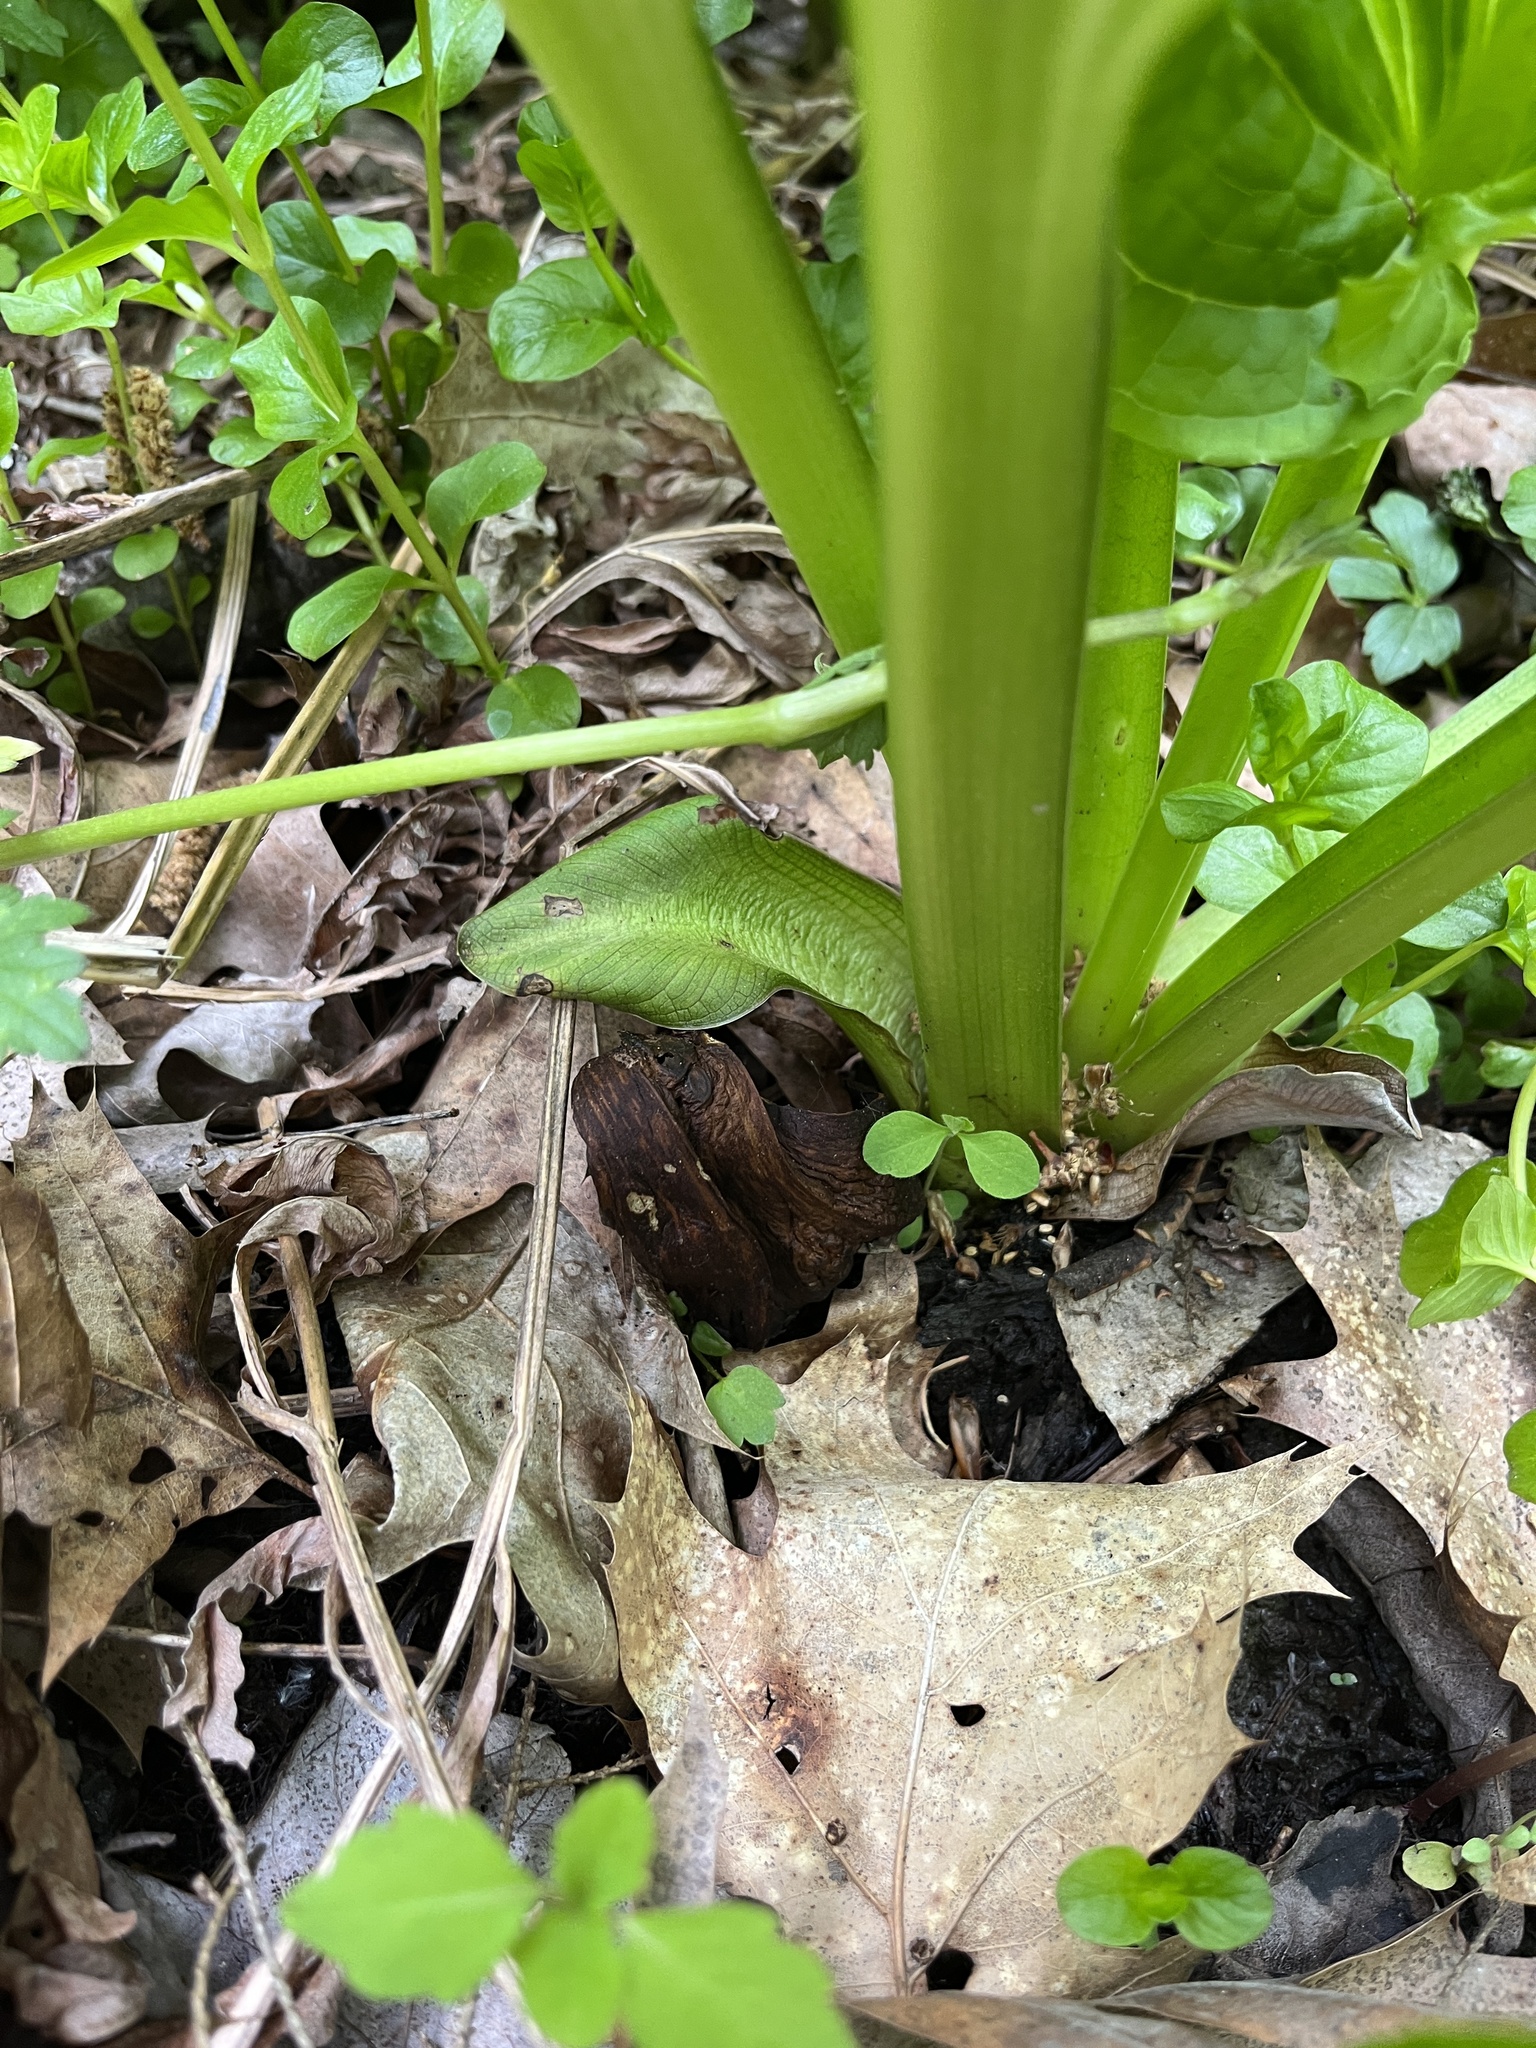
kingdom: Plantae
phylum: Tracheophyta
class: Liliopsida
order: Alismatales
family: Araceae
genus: Symplocarpus
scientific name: Symplocarpus foetidus
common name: Eastern skunk cabbage
